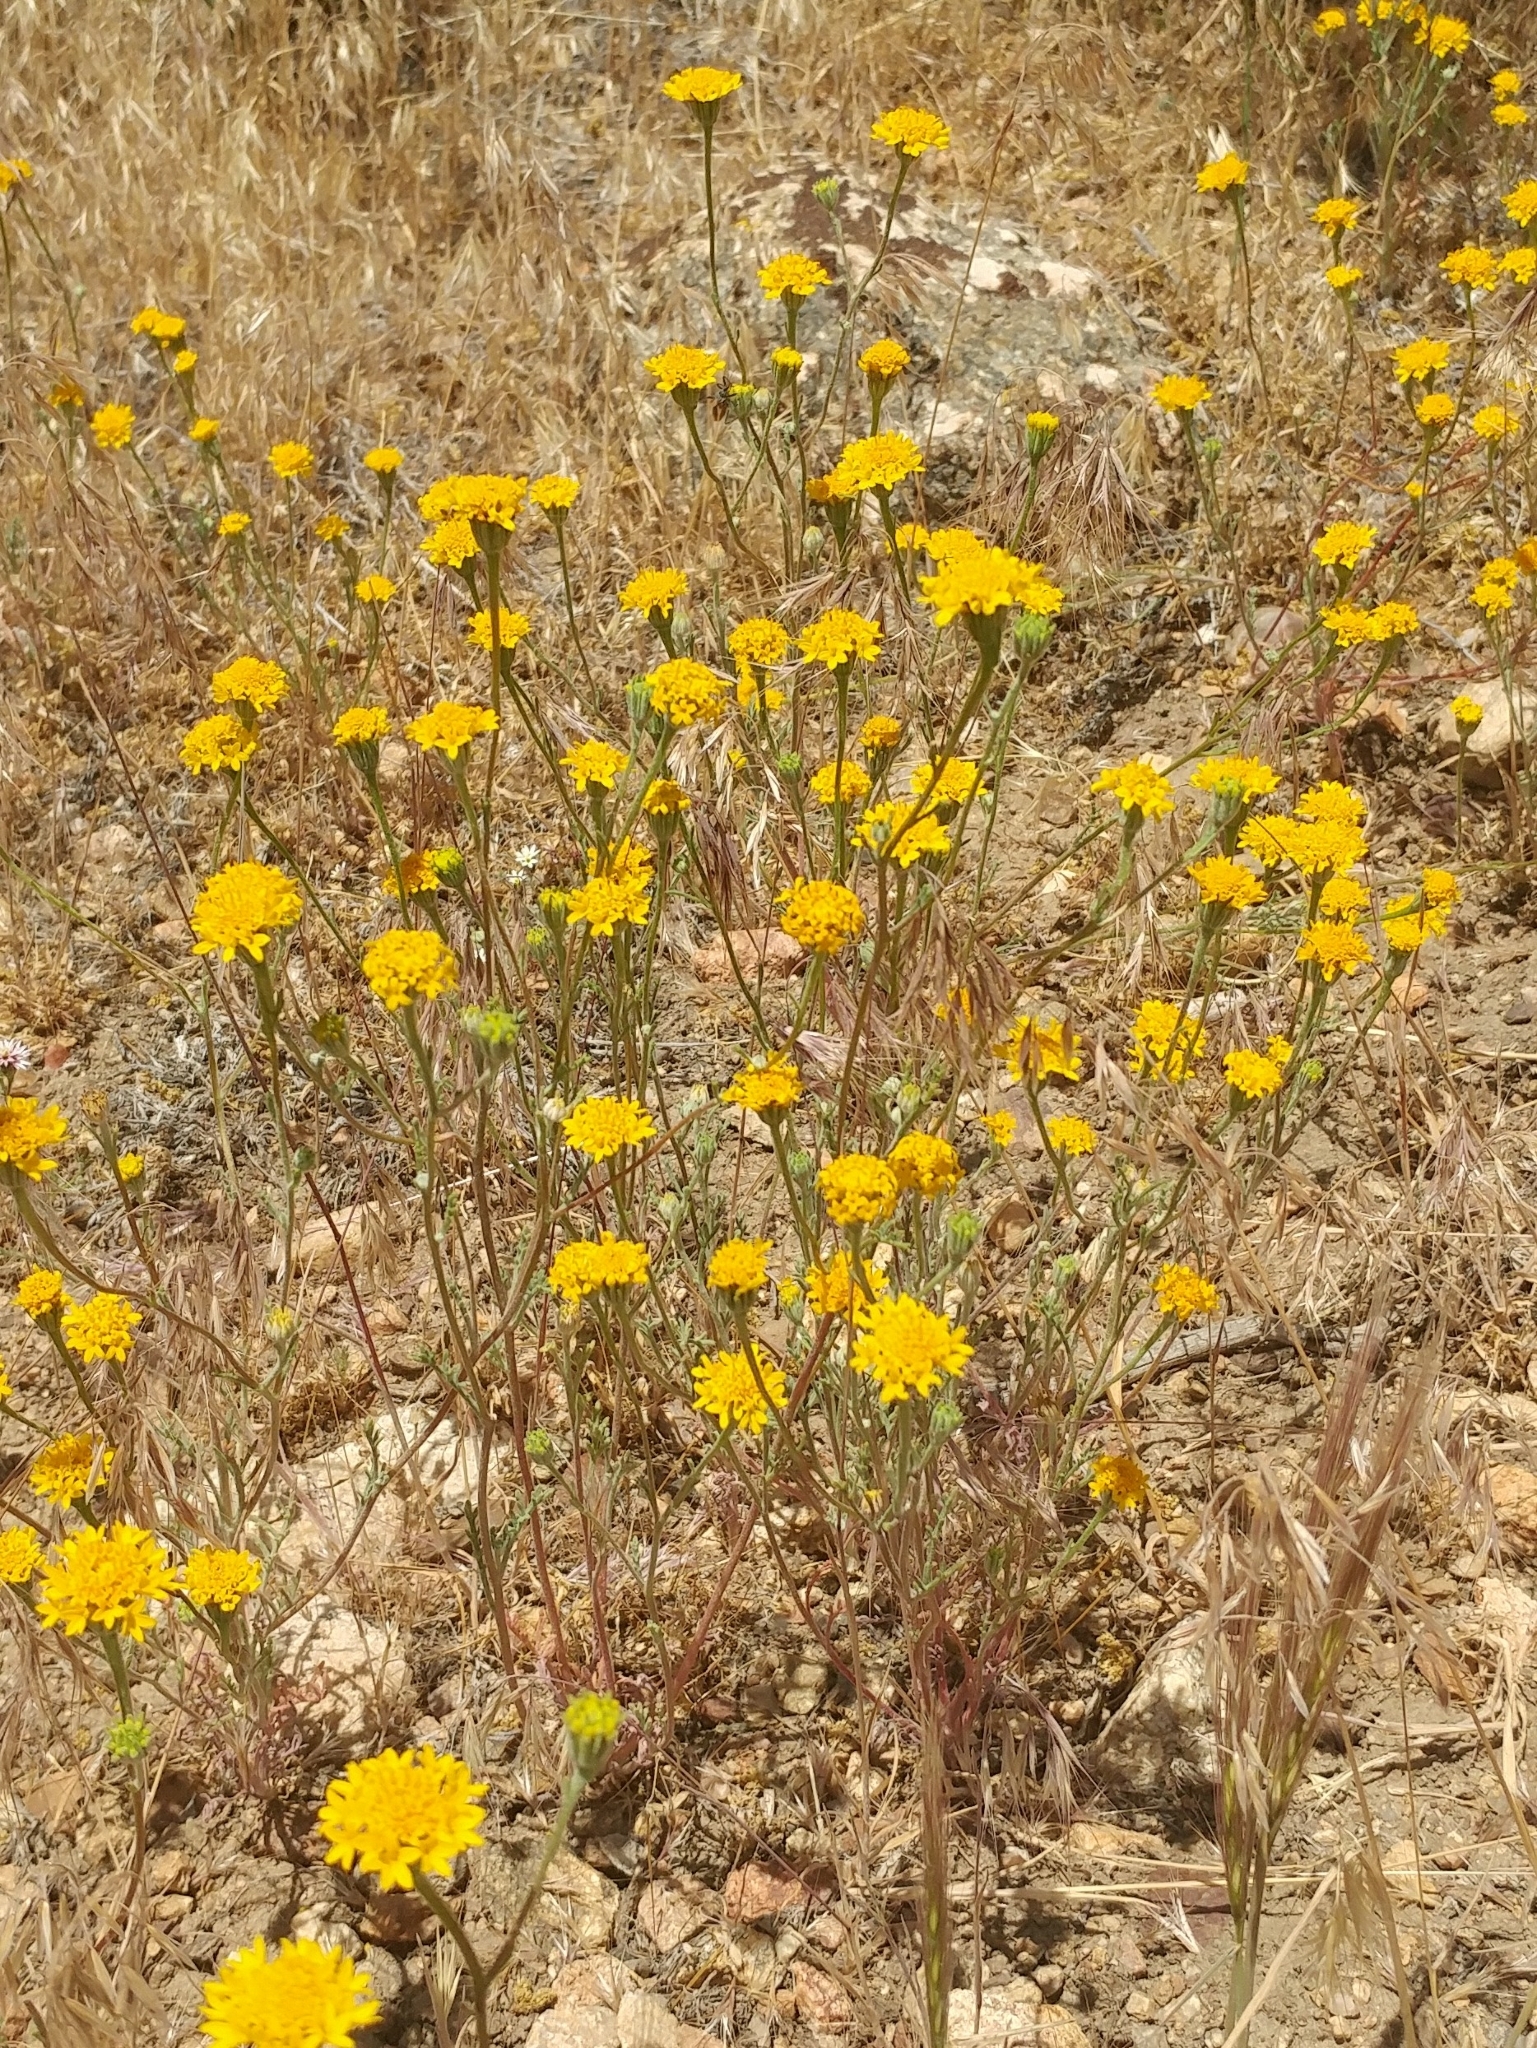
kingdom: Plantae
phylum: Tracheophyta
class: Magnoliopsida
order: Asterales
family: Asteraceae
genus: Chaenactis
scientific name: Chaenactis glabriuscula
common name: Yellow pincushion
